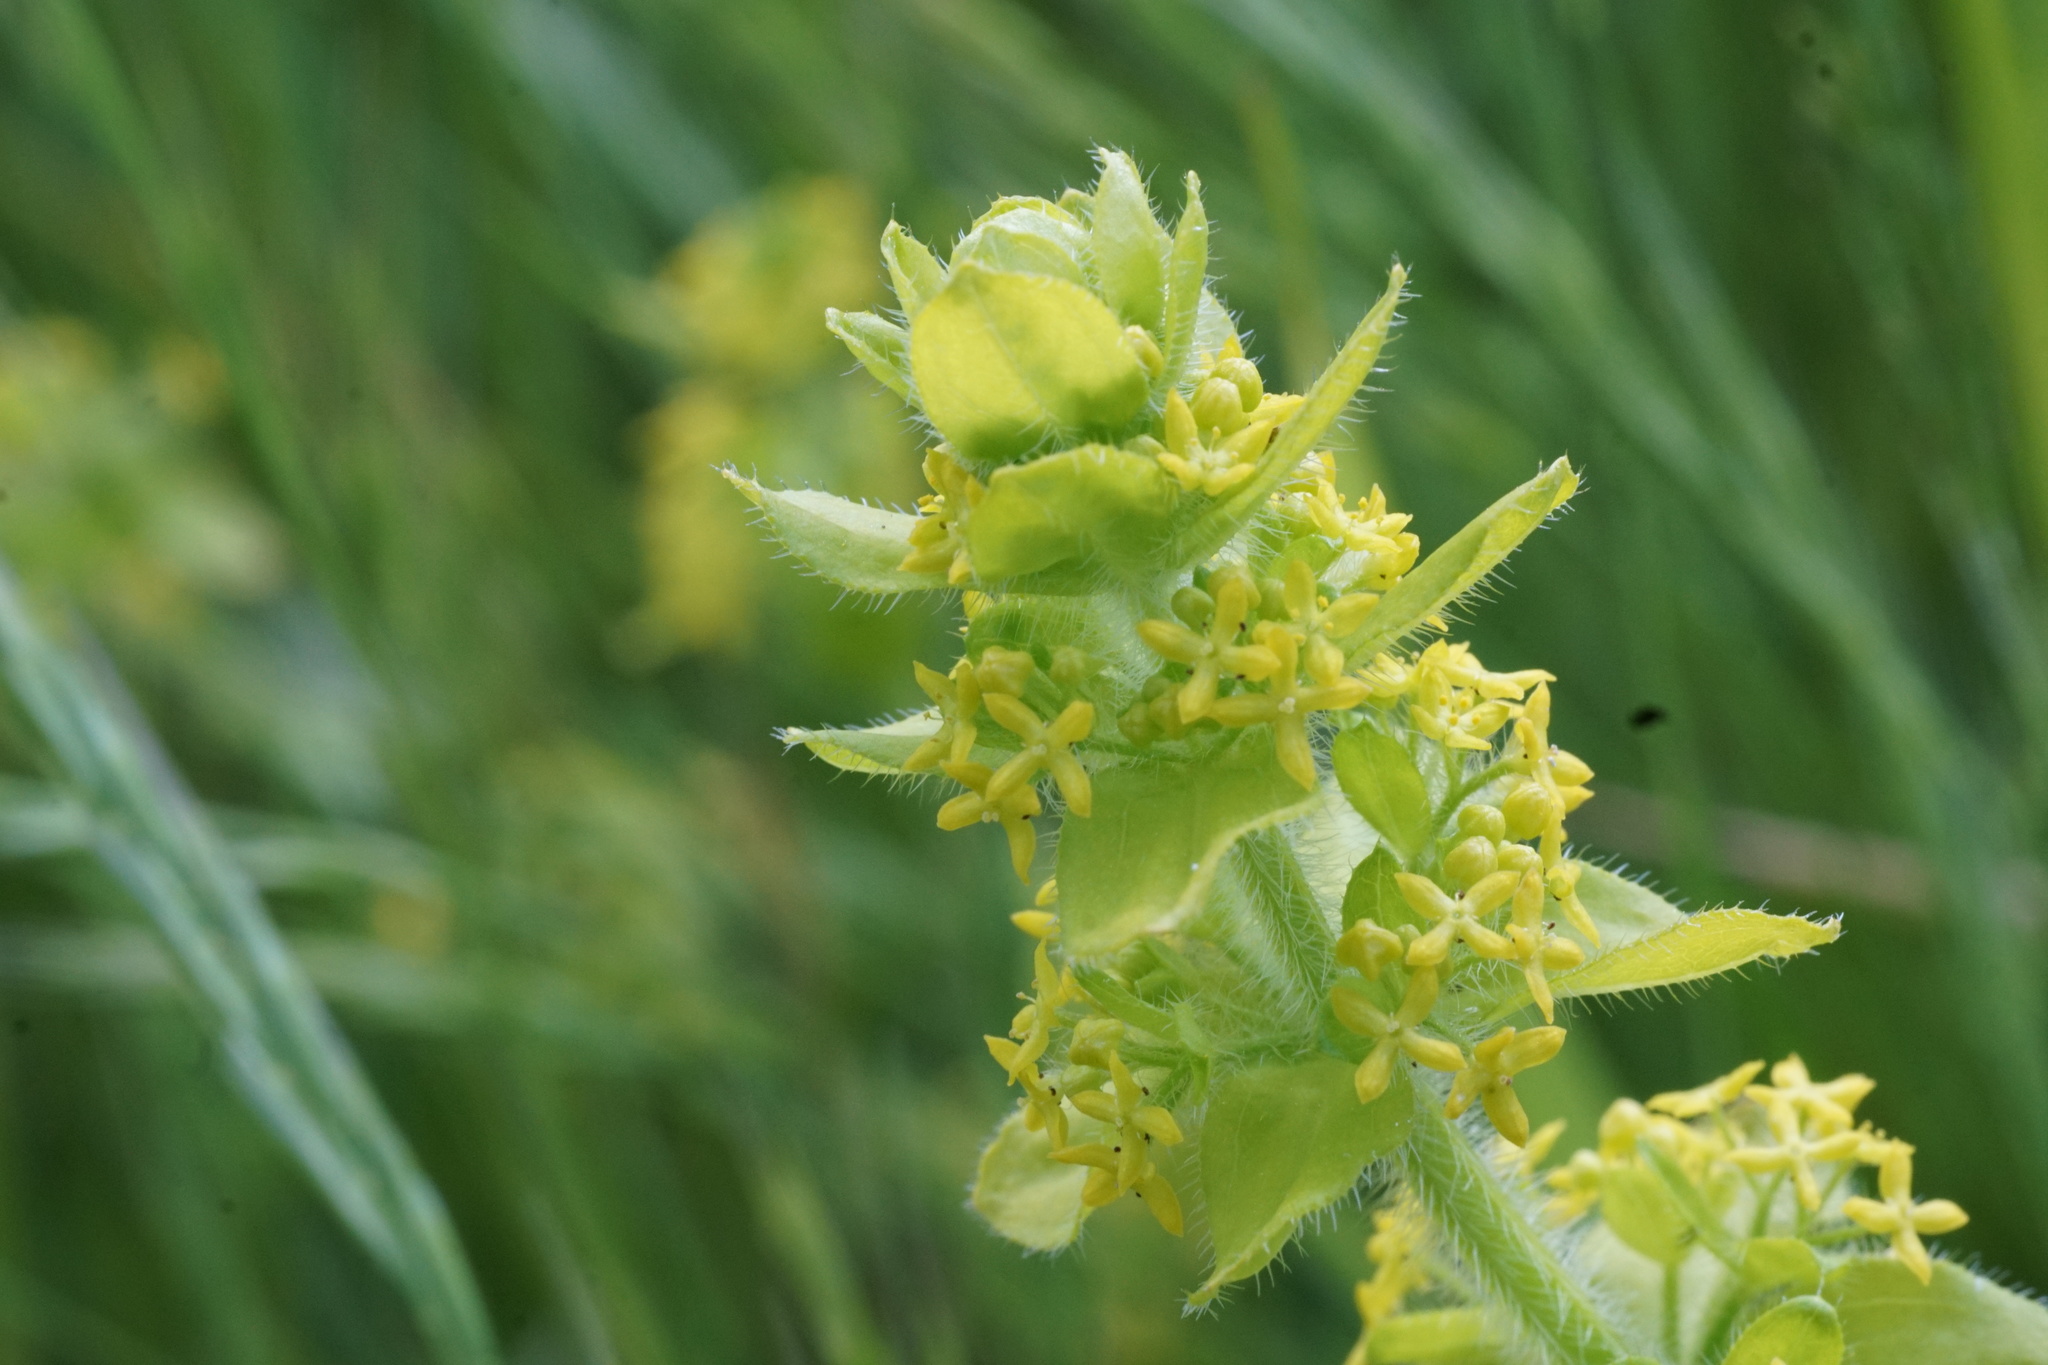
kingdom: Plantae
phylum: Tracheophyta
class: Magnoliopsida
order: Gentianales
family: Rubiaceae
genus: Cruciata
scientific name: Cruciata laevipes
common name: Crosswort
